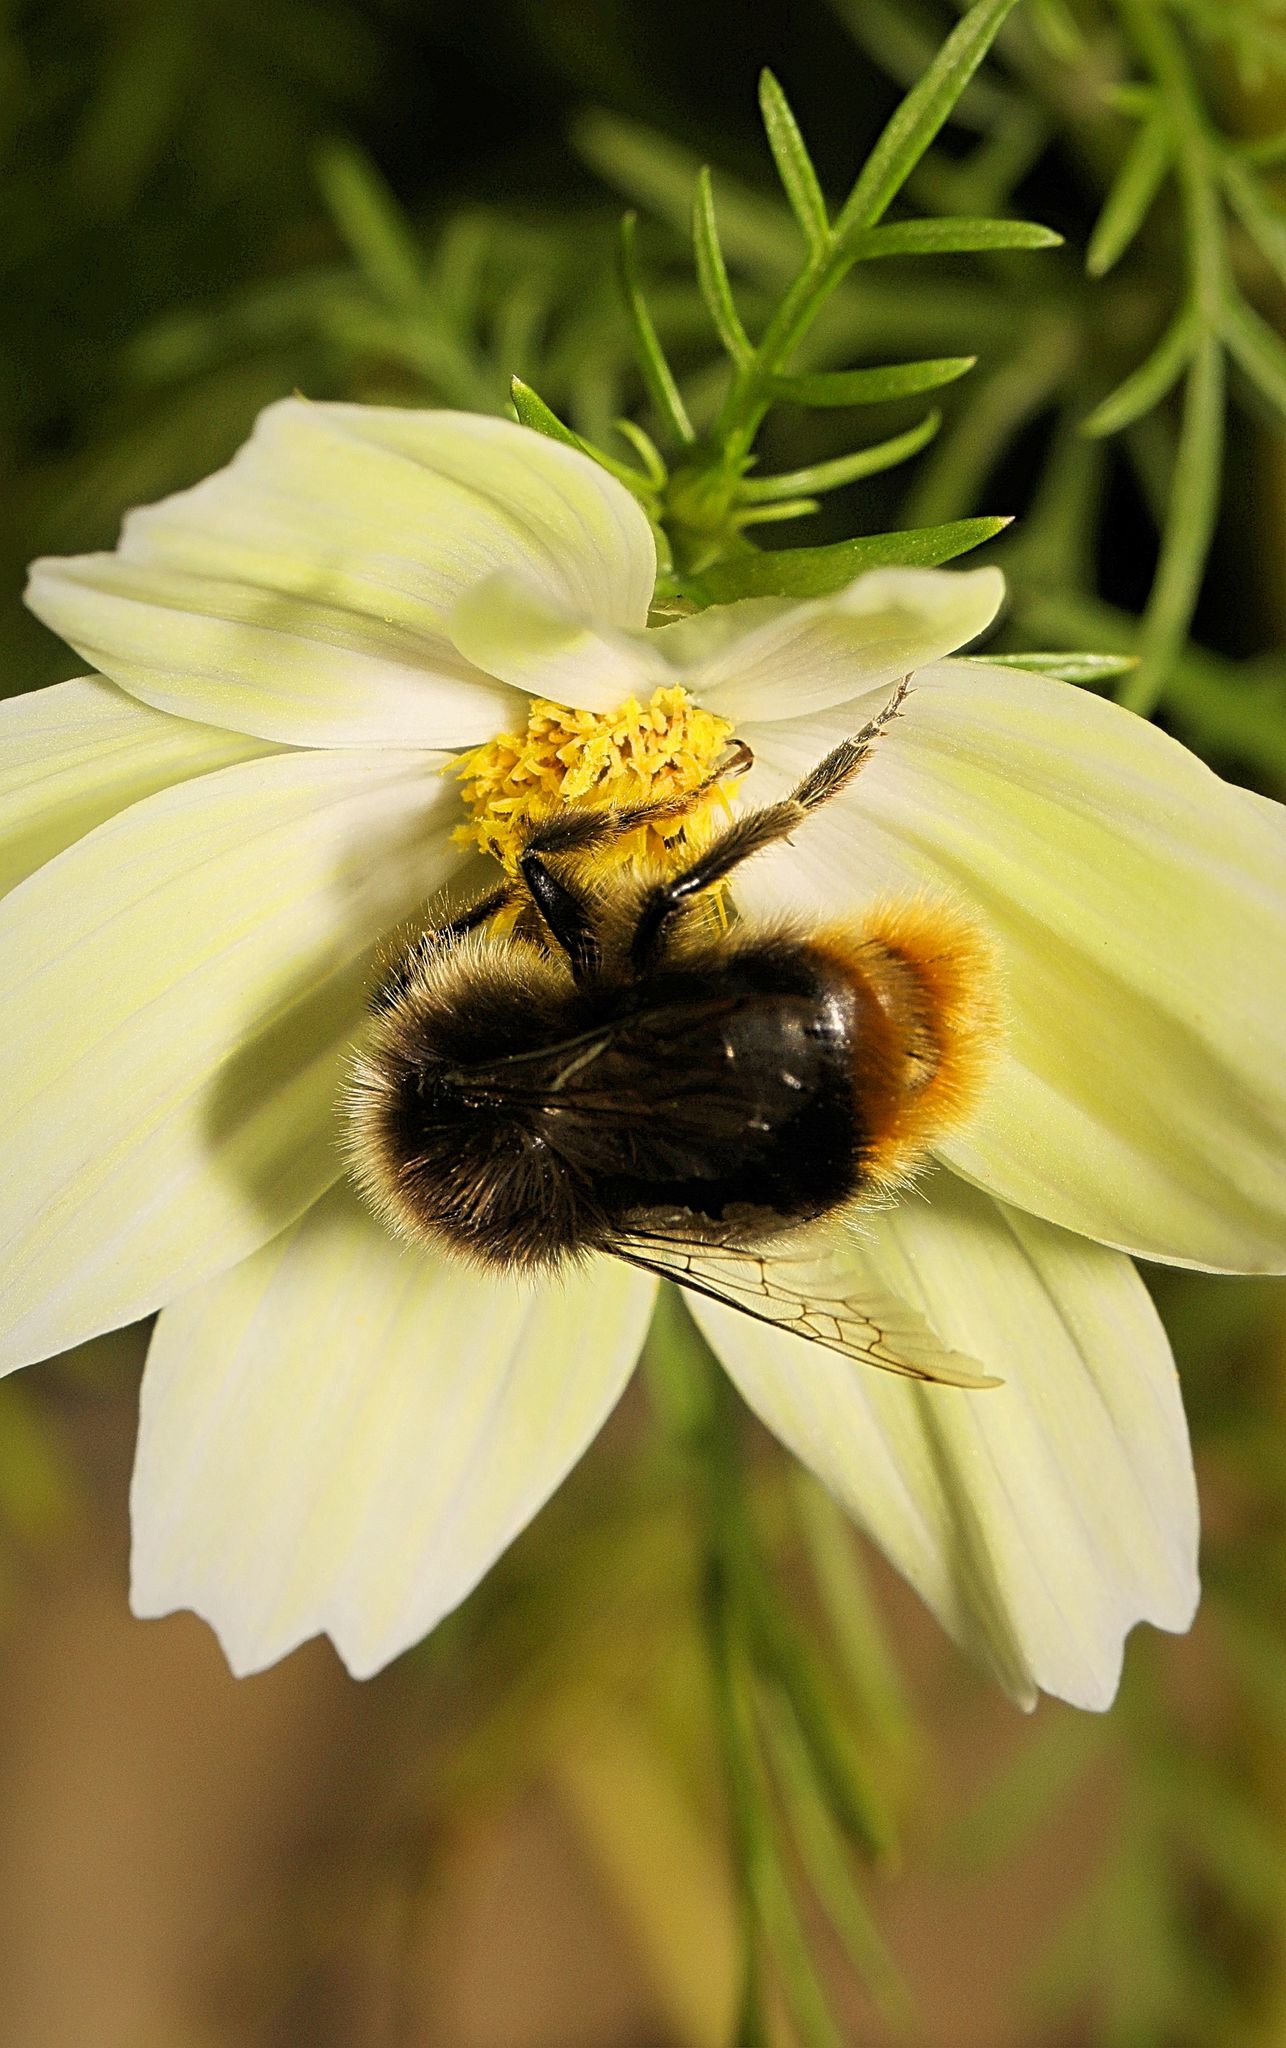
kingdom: Animalia
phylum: Arthropoda
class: Insecta
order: Hymenoptera
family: Apidae
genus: Bombus
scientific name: Bombus lapidarius
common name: Large red-tailed humble-bee
